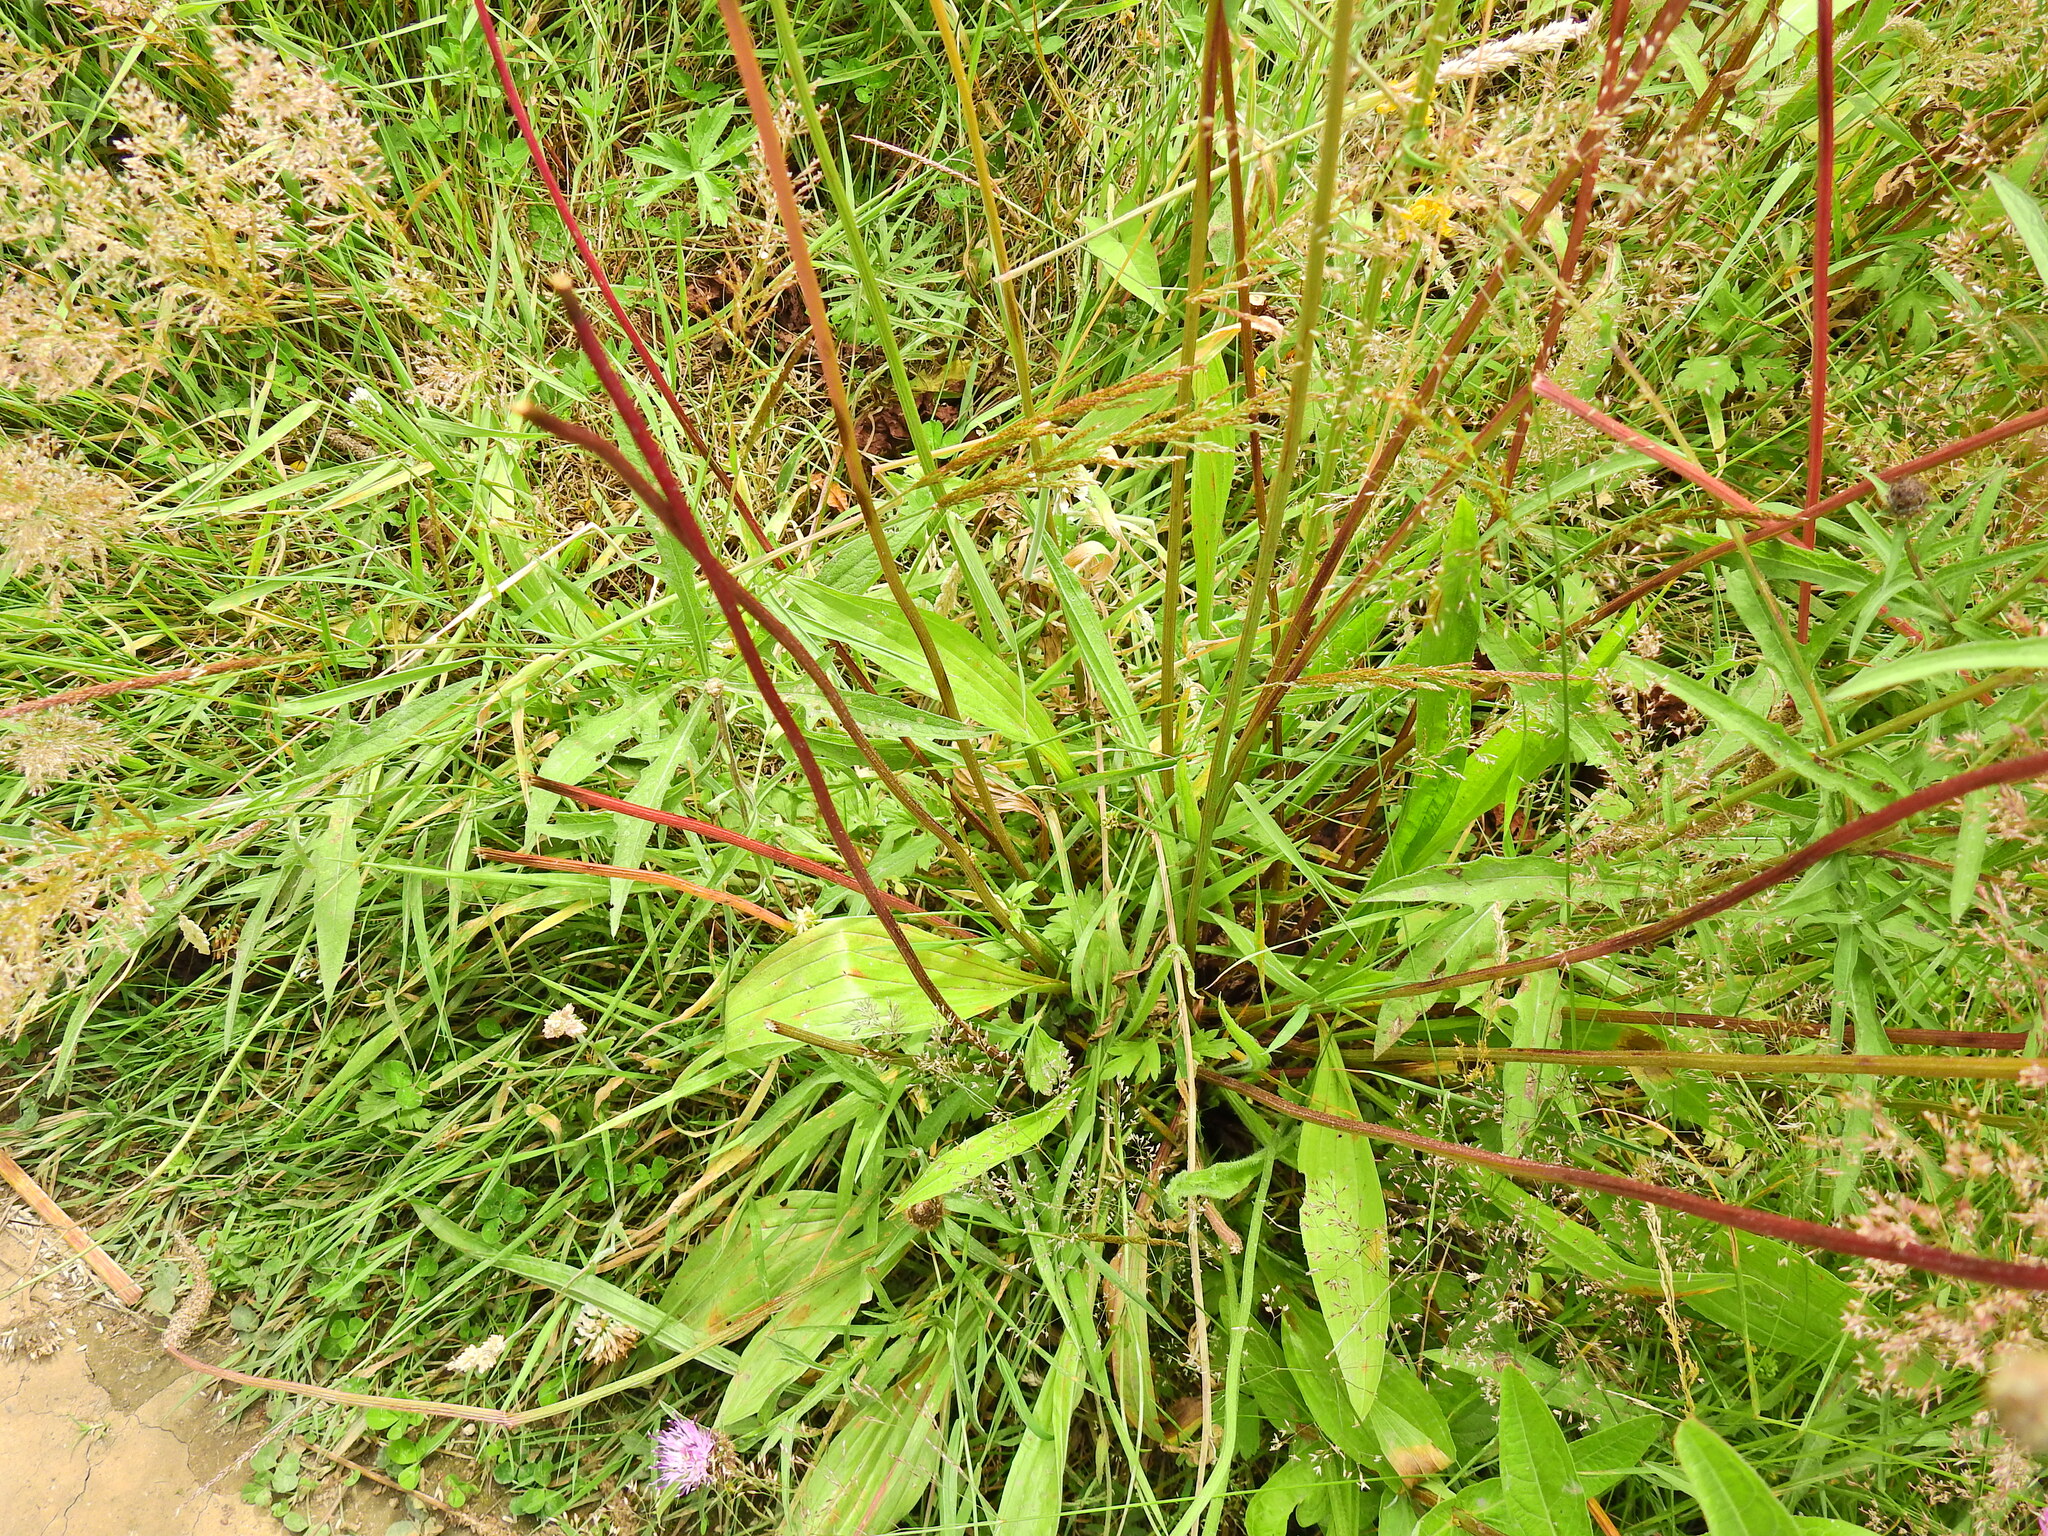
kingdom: Plantae
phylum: Tracheophyta
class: Magnoliopsida
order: Lamiales
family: Plantaginaceae
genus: Plantago
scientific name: Plantago lanceolata
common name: Ribwort plantain
